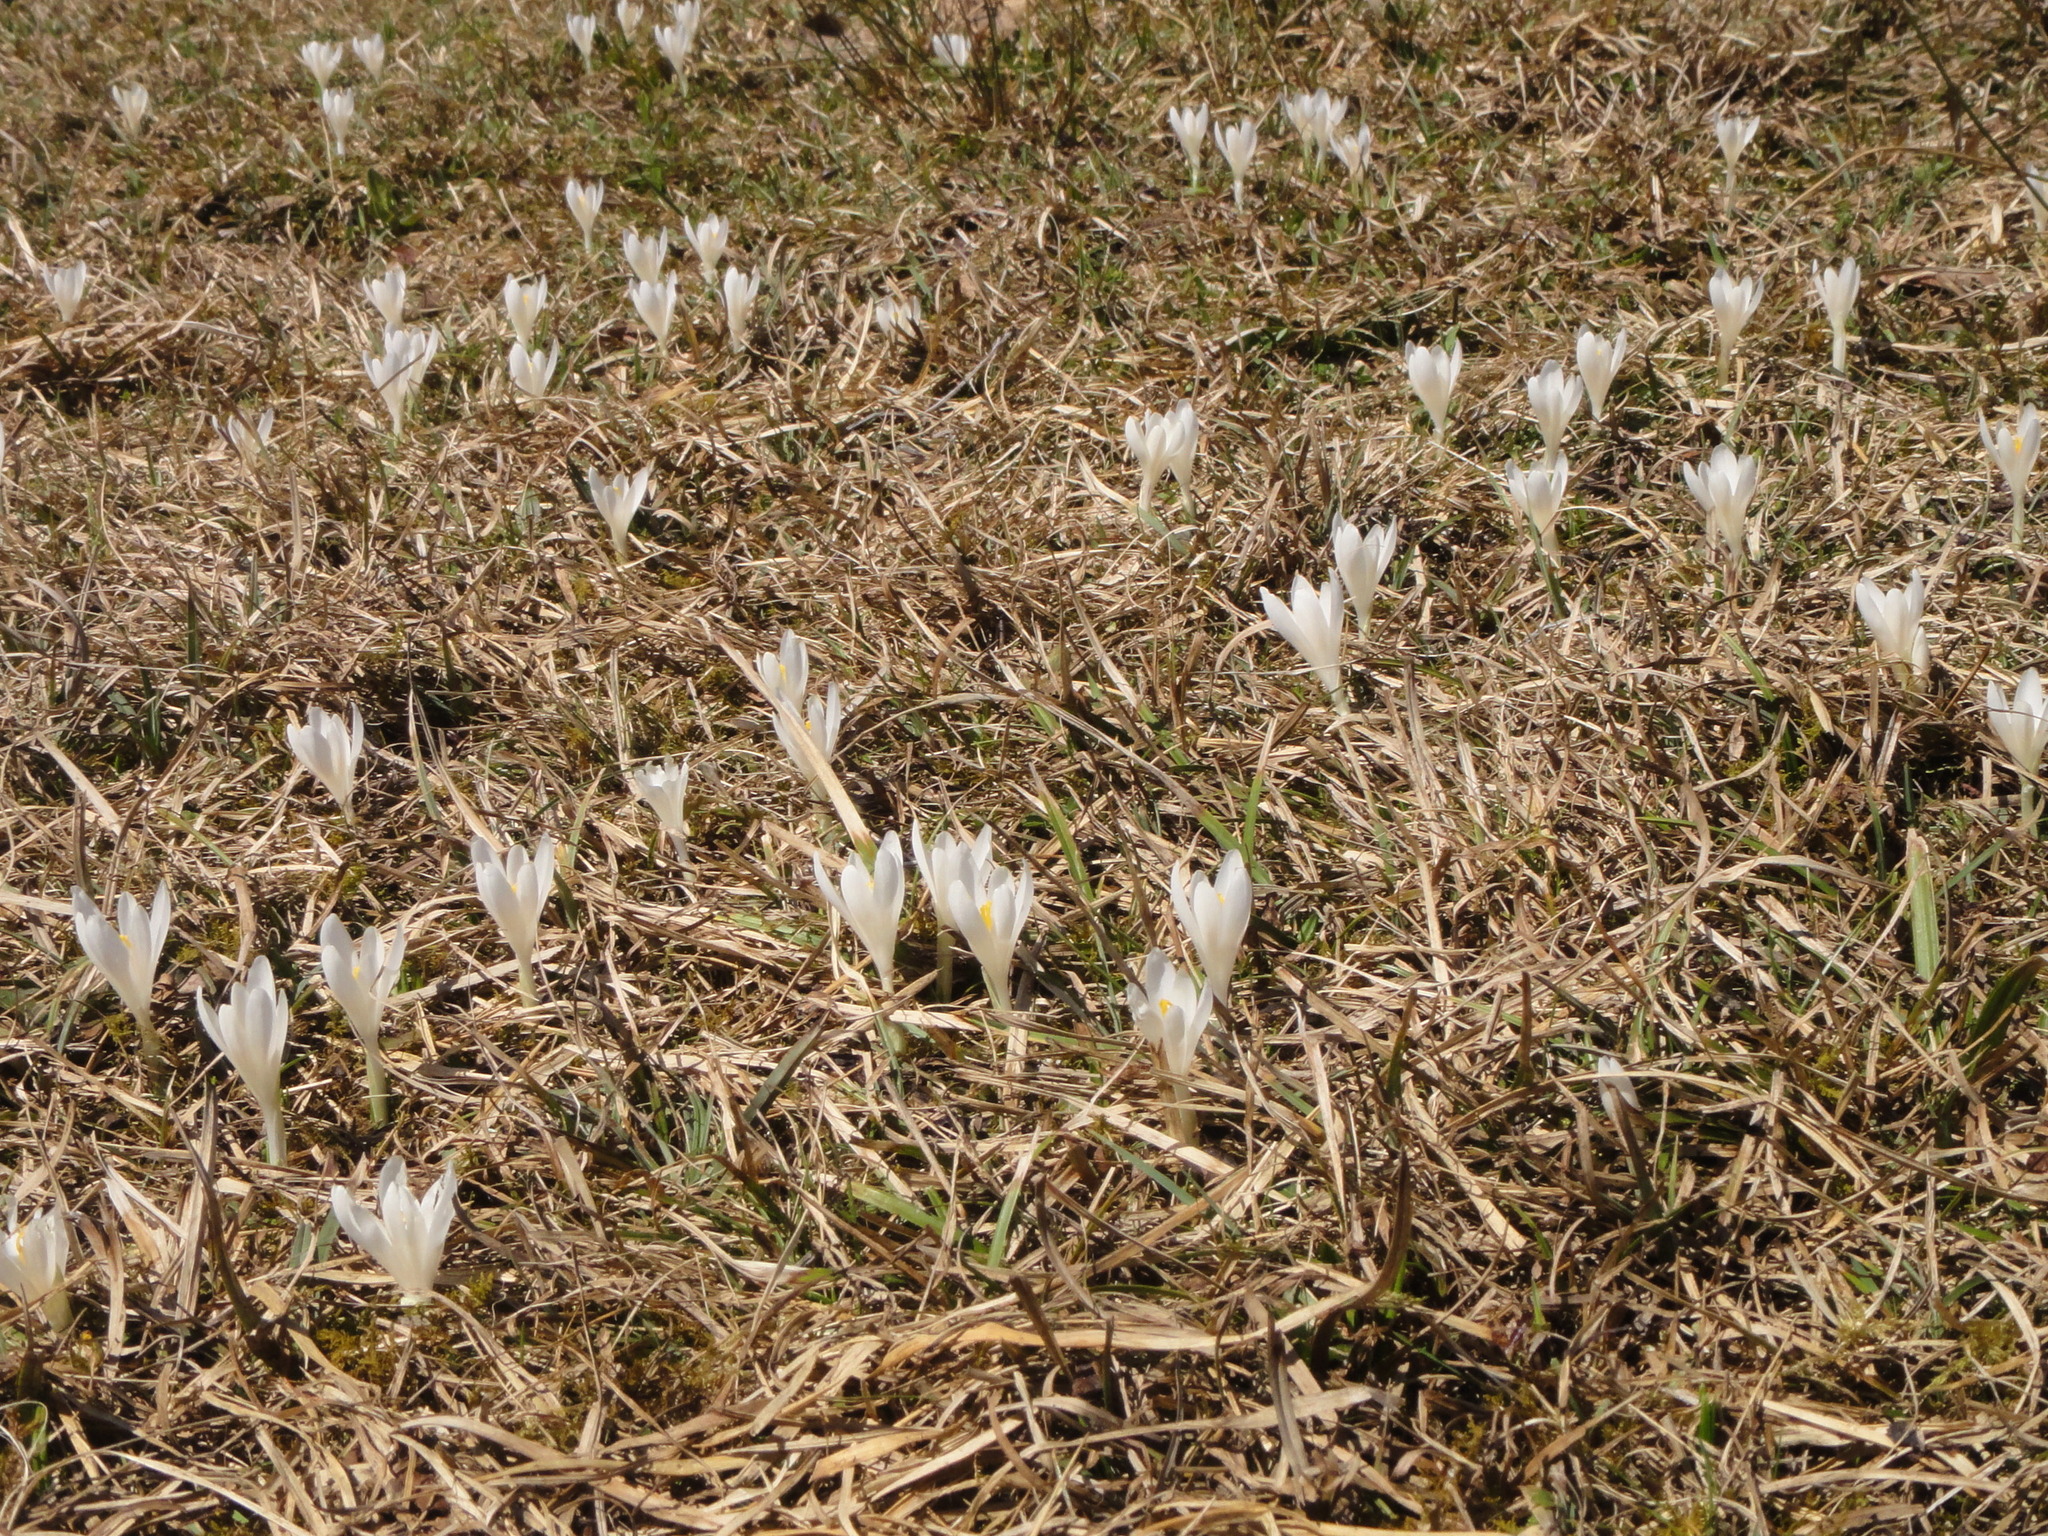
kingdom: Plantae
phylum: Tracheophyta
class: Liliopsida
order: Asparagales
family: Iridaceae
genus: Crocus
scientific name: Crocus vernus
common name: Spring crocus
